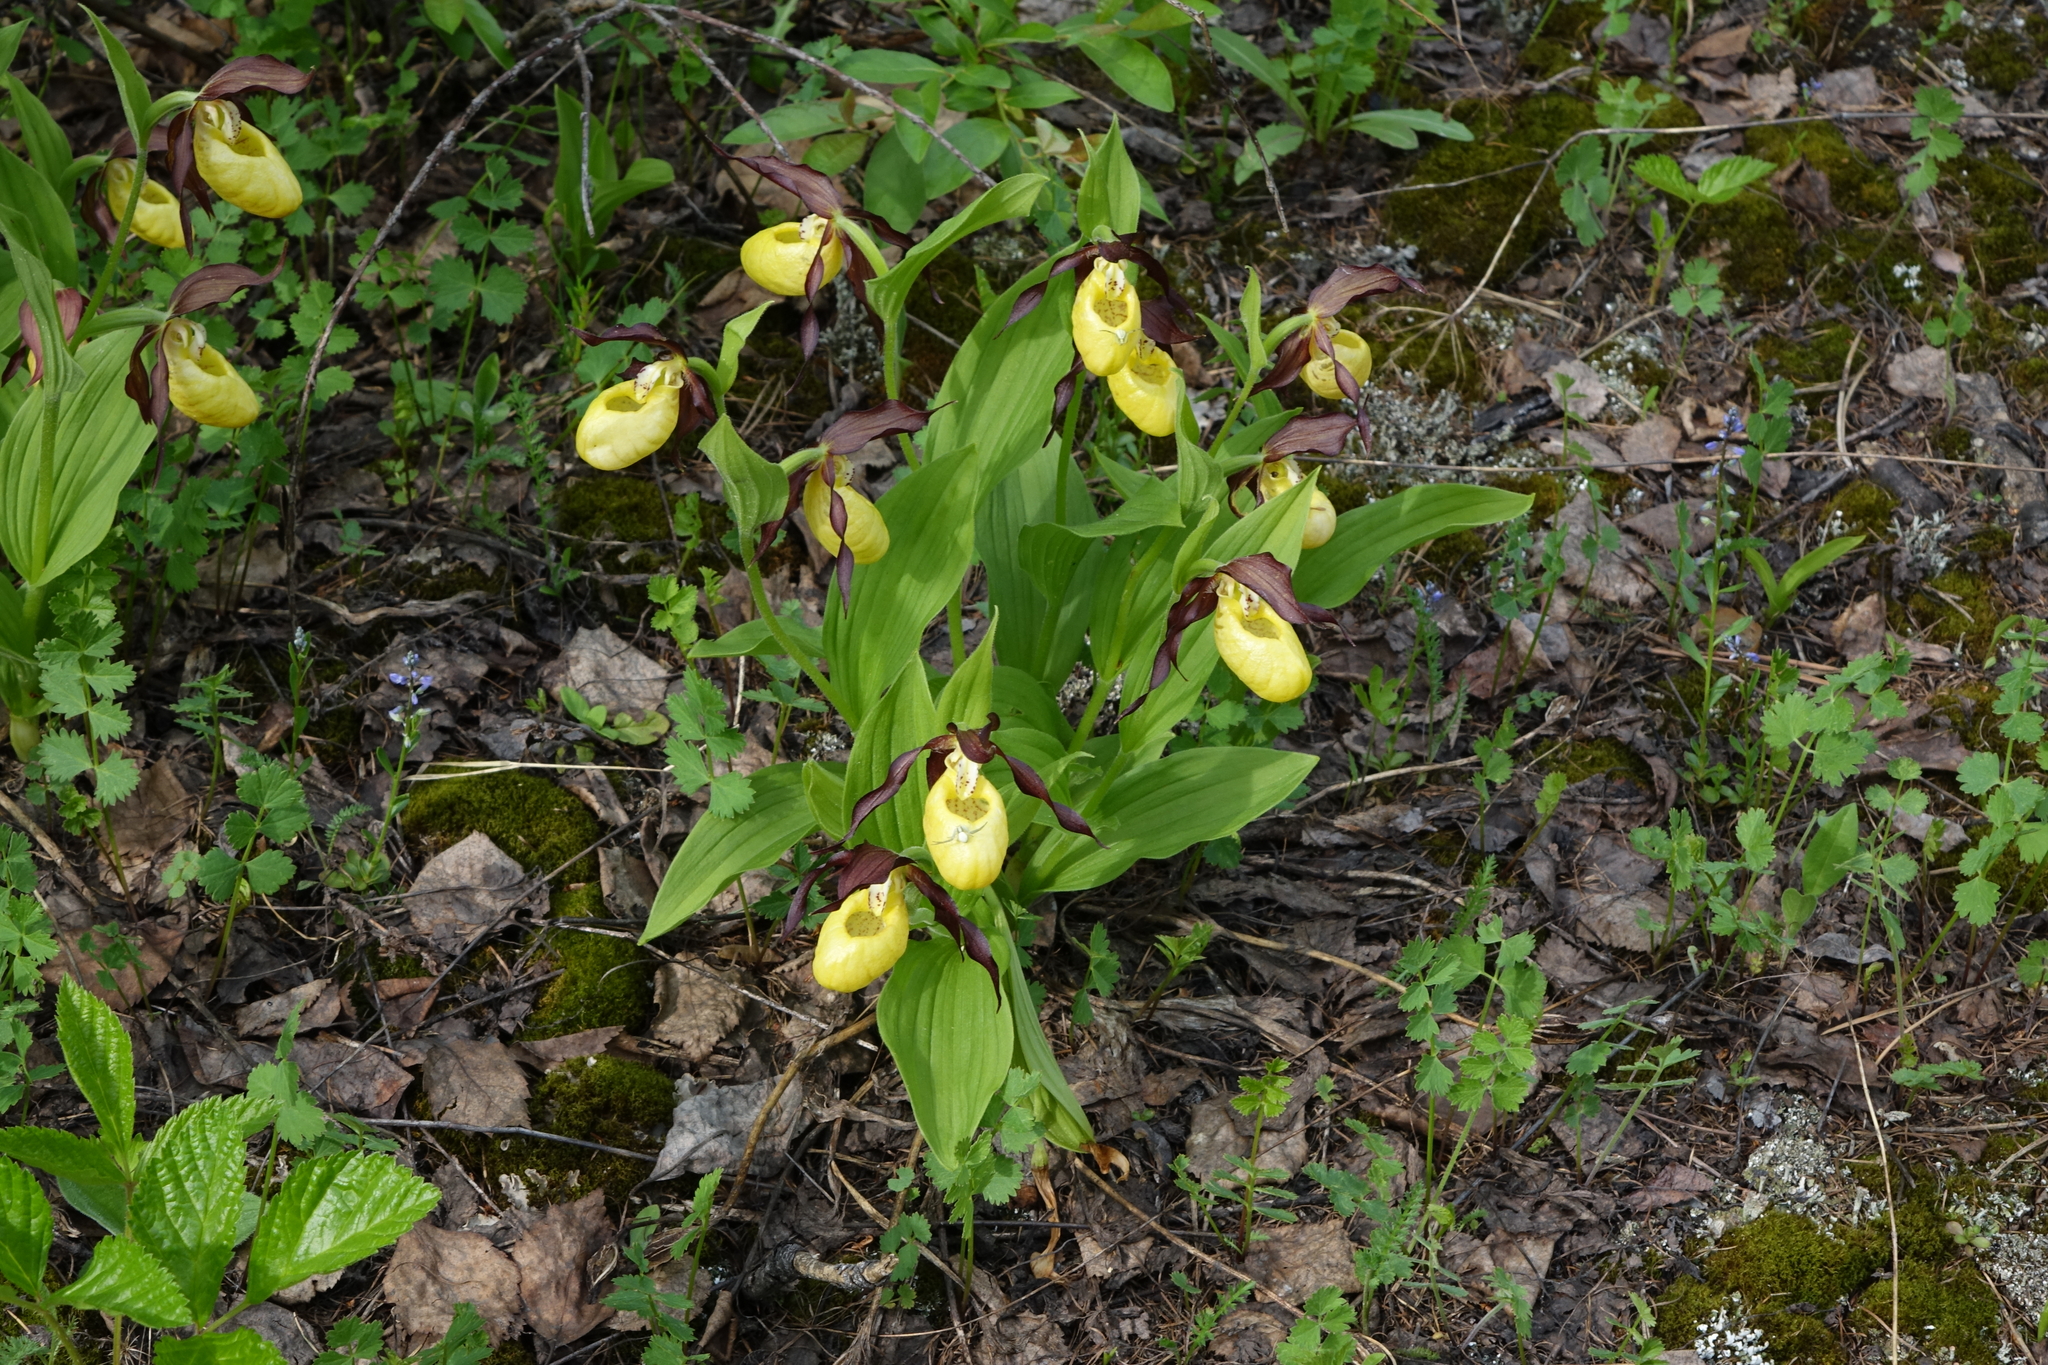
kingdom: Plantae
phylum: Tracheophyta
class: Liliopsida
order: Asparagales
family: Orchidaceae
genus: Cypripedium
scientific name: Cypripedium calceolus
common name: Lady's-slipper
